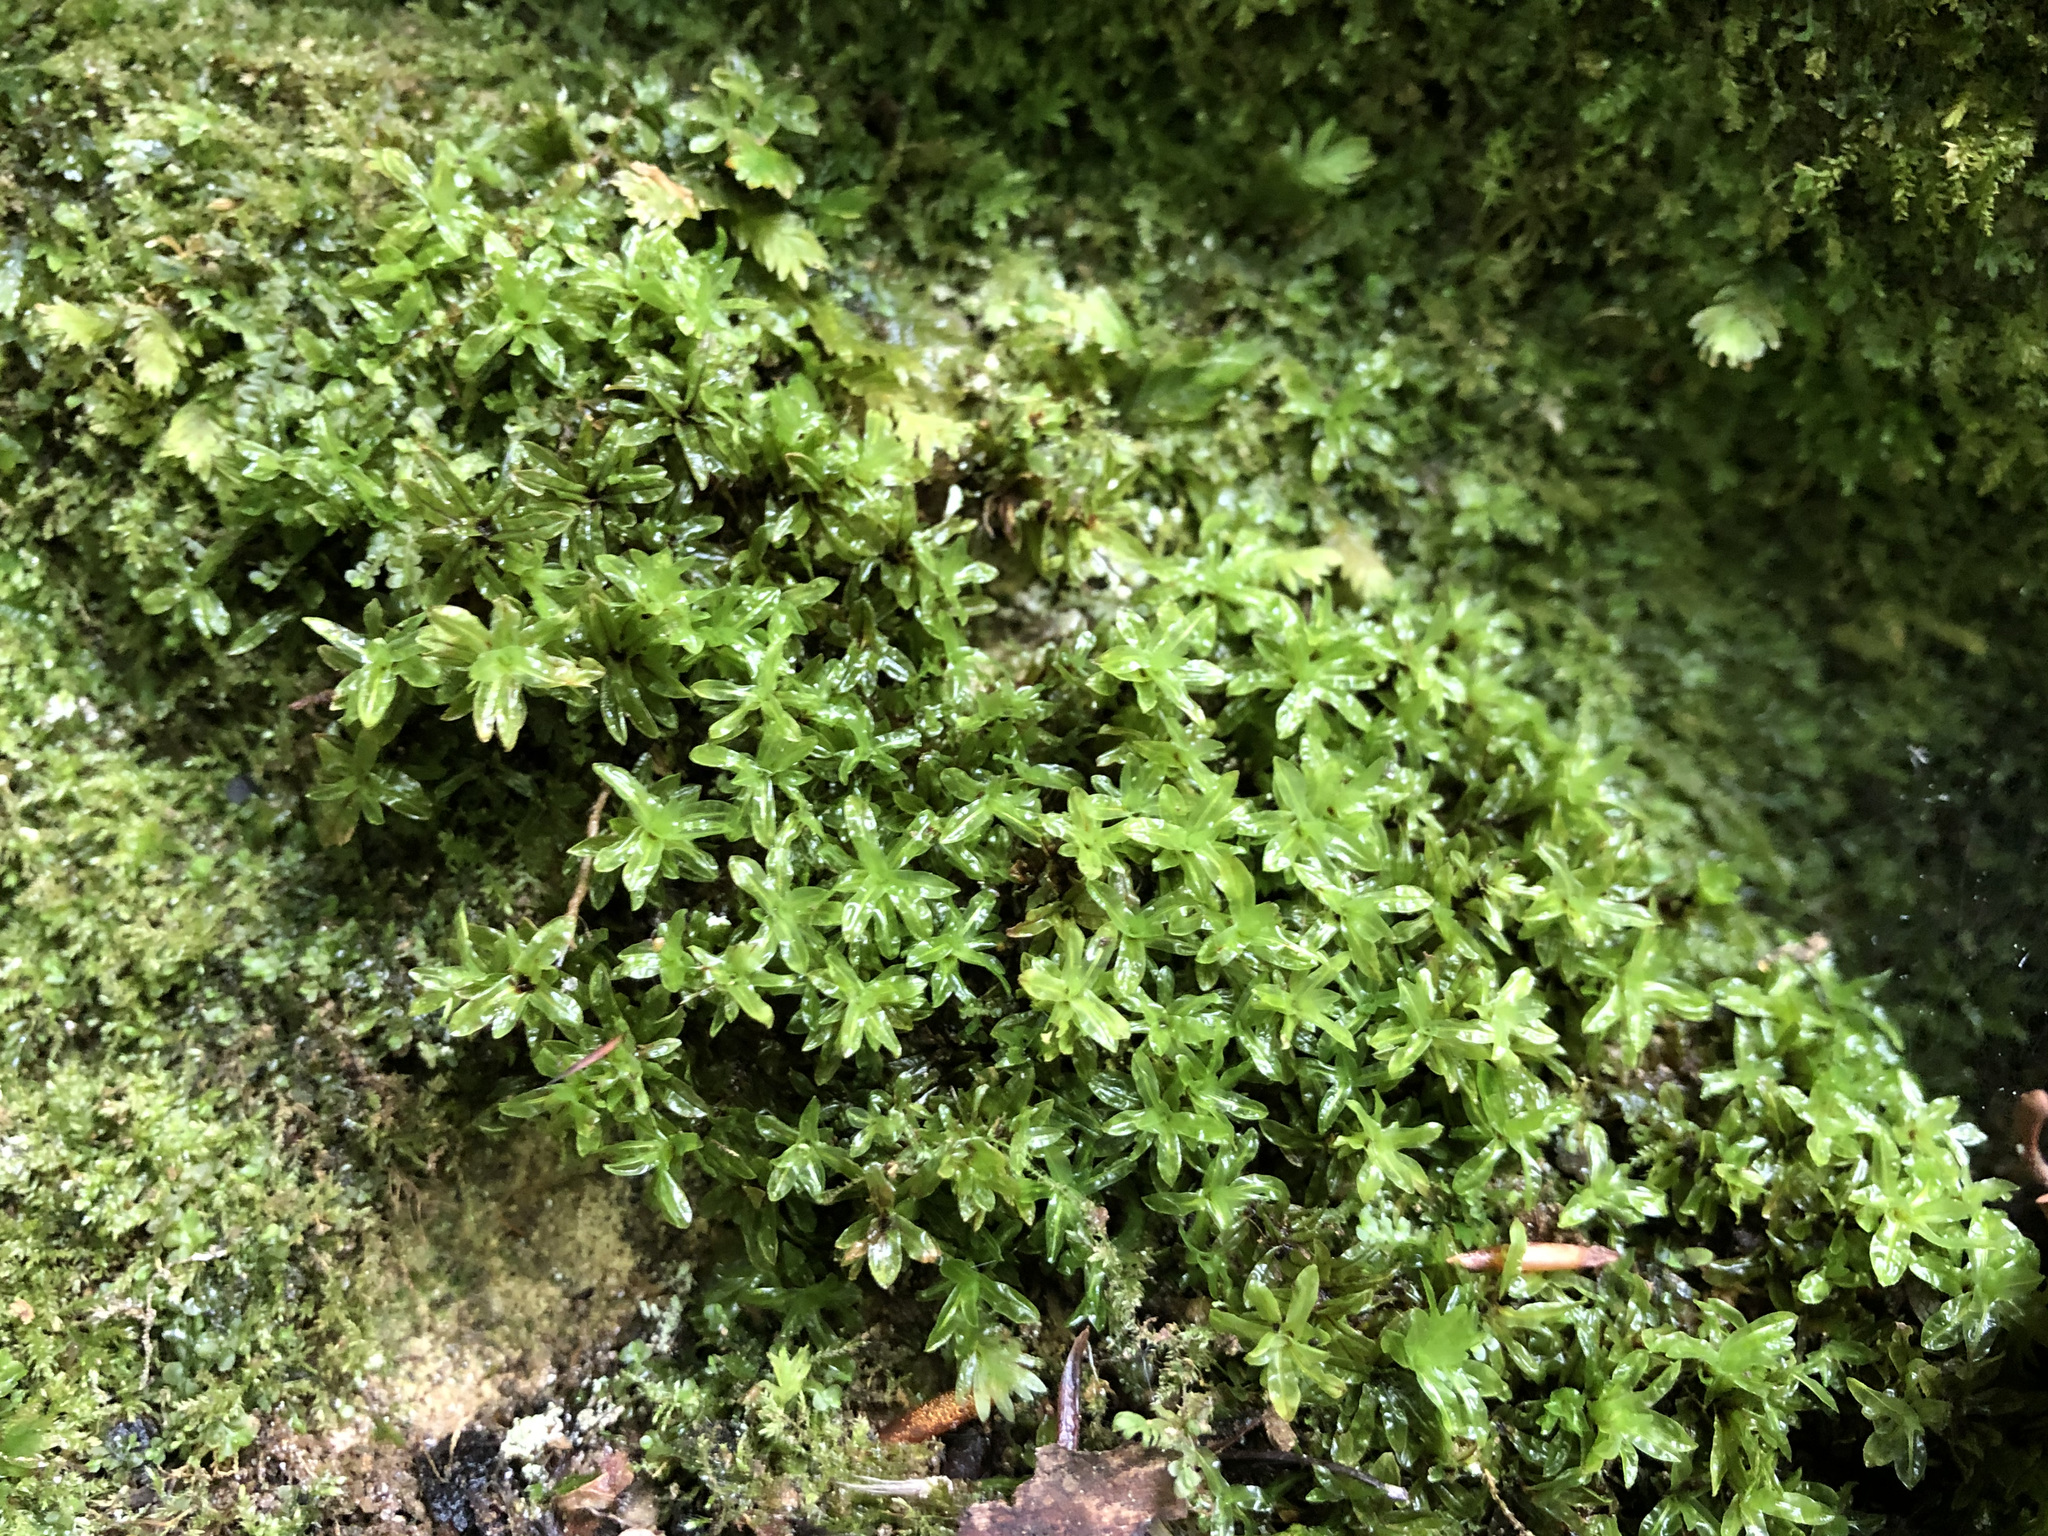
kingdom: Plantae
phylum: Bryophyta
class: Bryopsida
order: Encalyptales
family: Encalyptaceae
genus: Encalypta
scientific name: Encalypta streptocarpa
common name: Spiral extinguisher-moss
